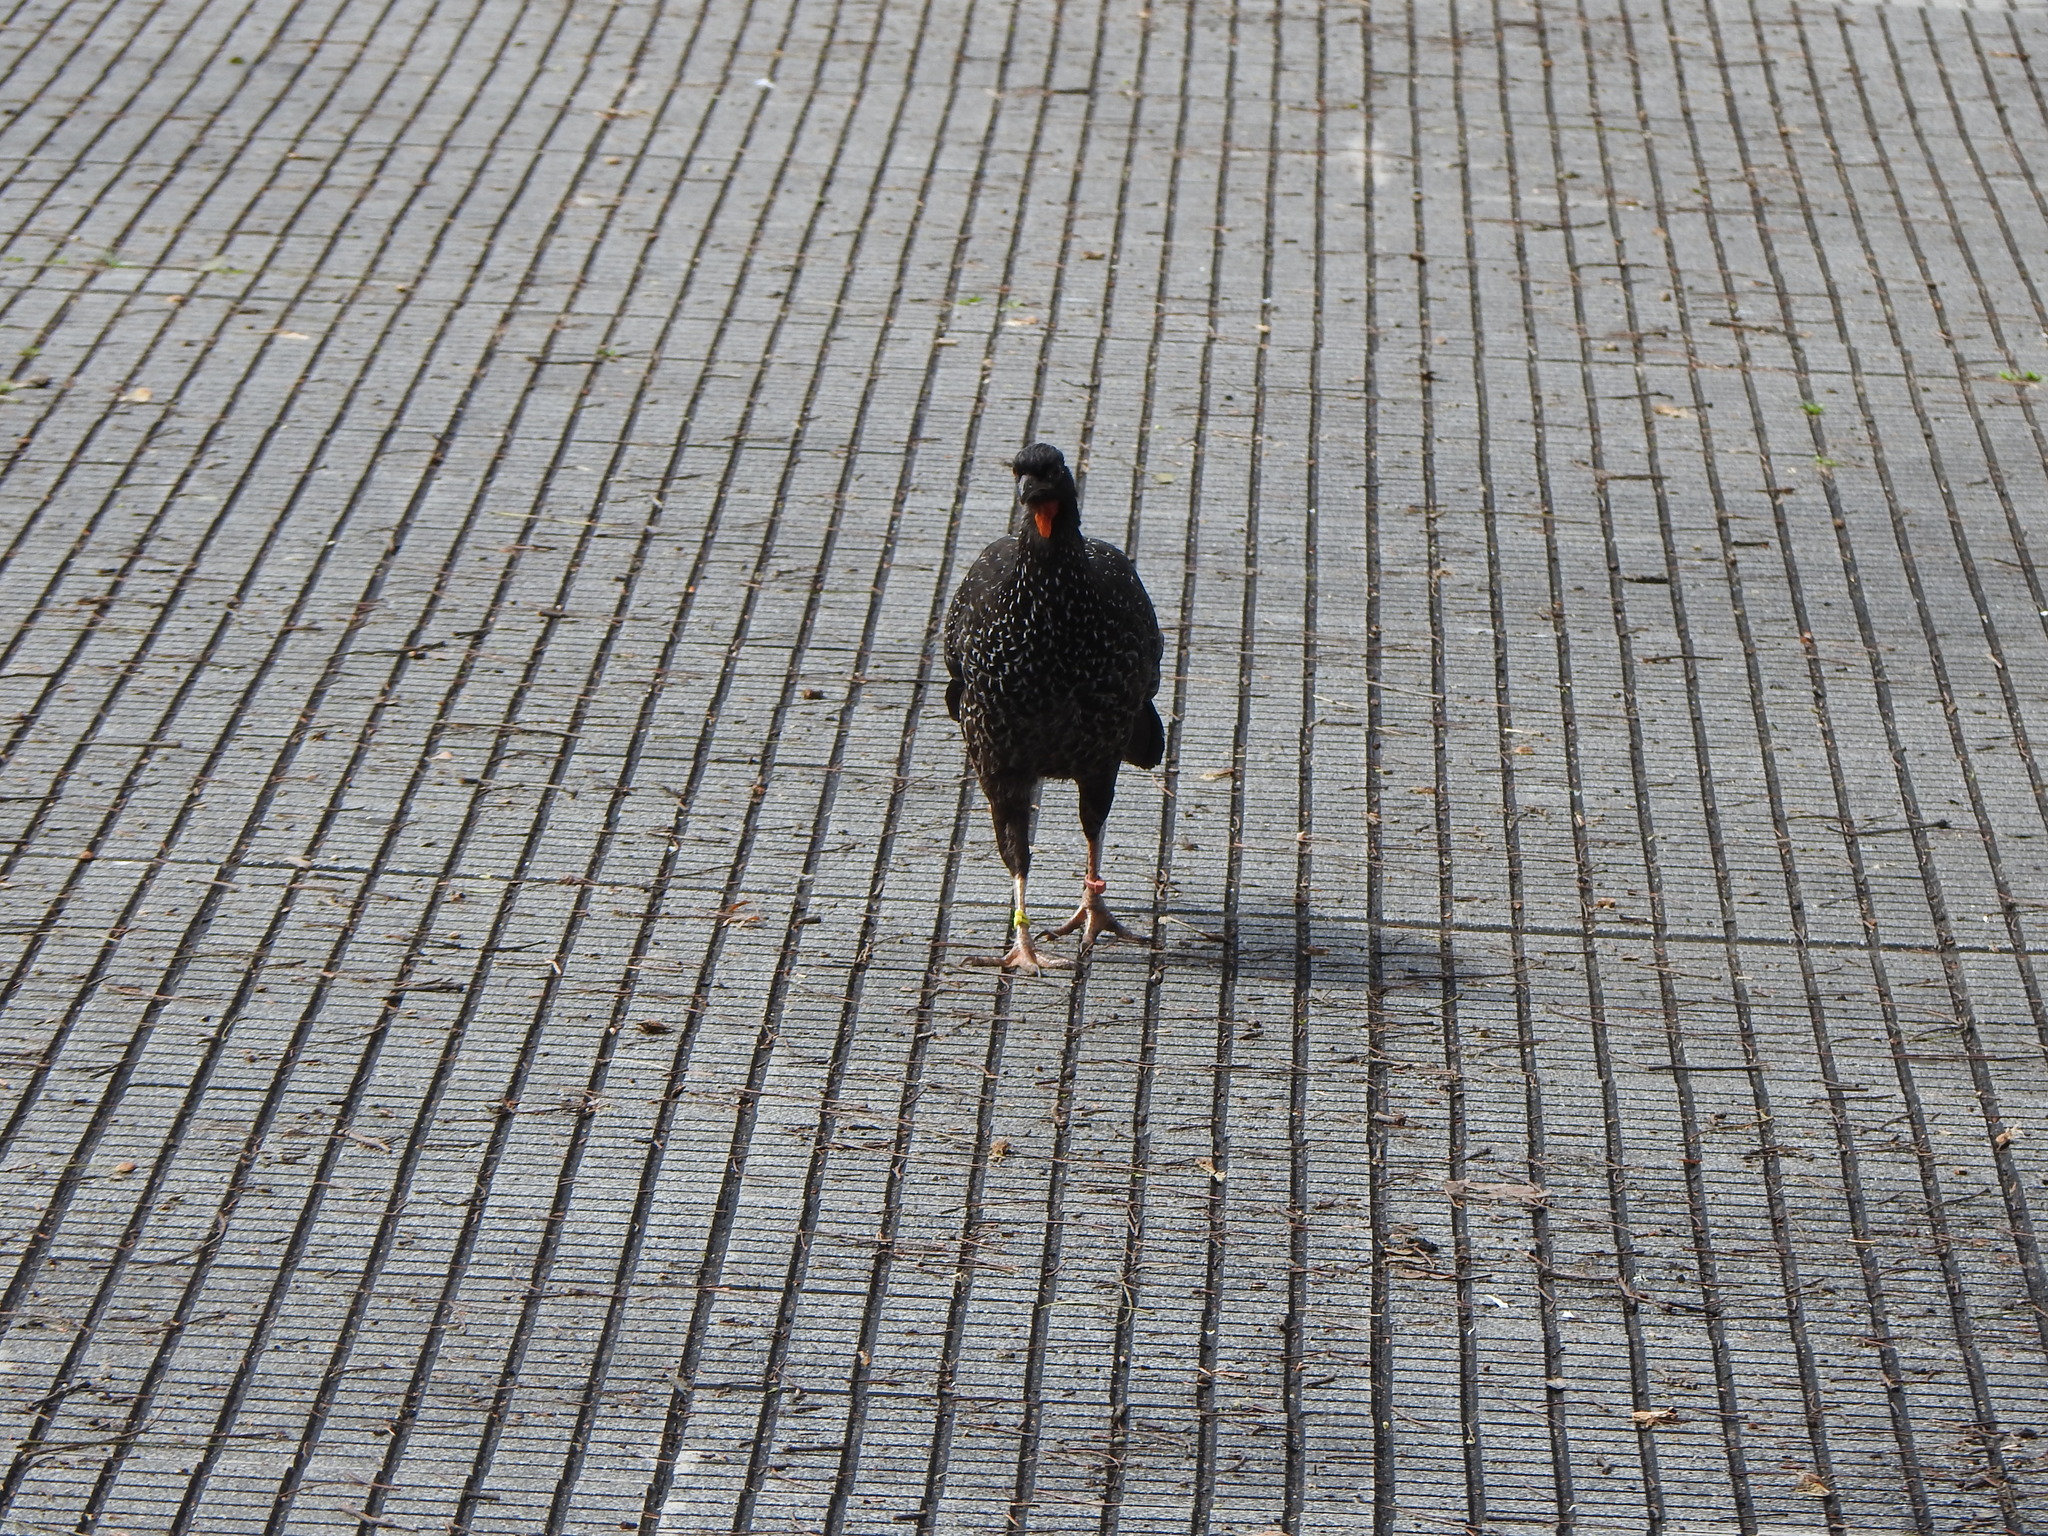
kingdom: Animalia
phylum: Chordata
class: Aves
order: Galliformes
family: Cracidae
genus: Penelope
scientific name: Penelope obscura
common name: Dusky-legged guan
